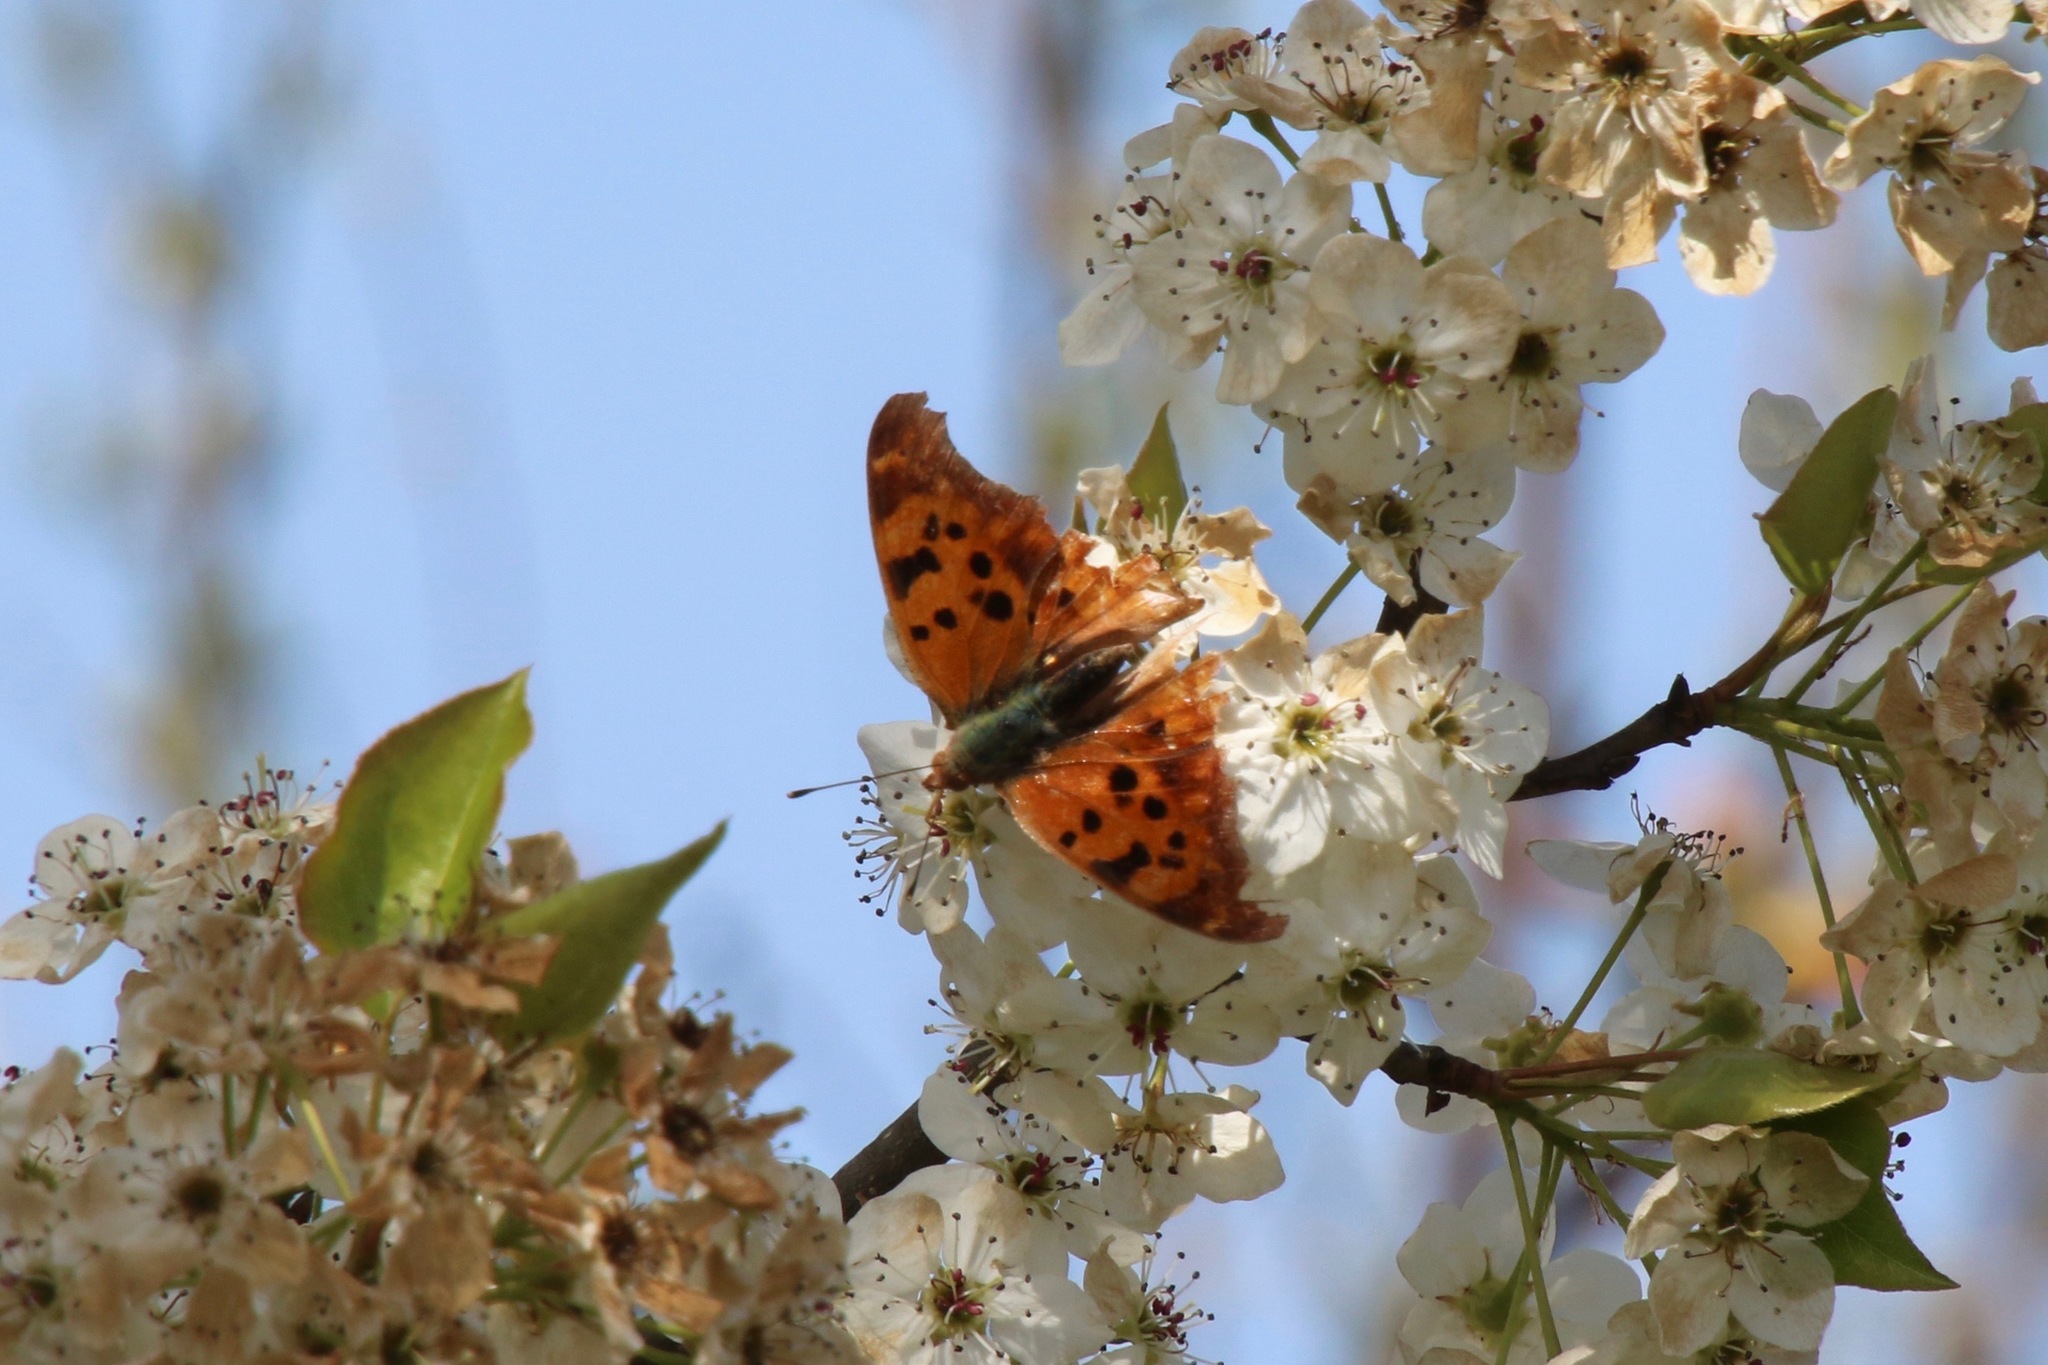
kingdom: Animalia
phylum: Arthropoda
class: Insecta
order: Lepidoptera
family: Nymphalidae
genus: Polygonia
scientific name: Polygonia interrogationis
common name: Question mark
